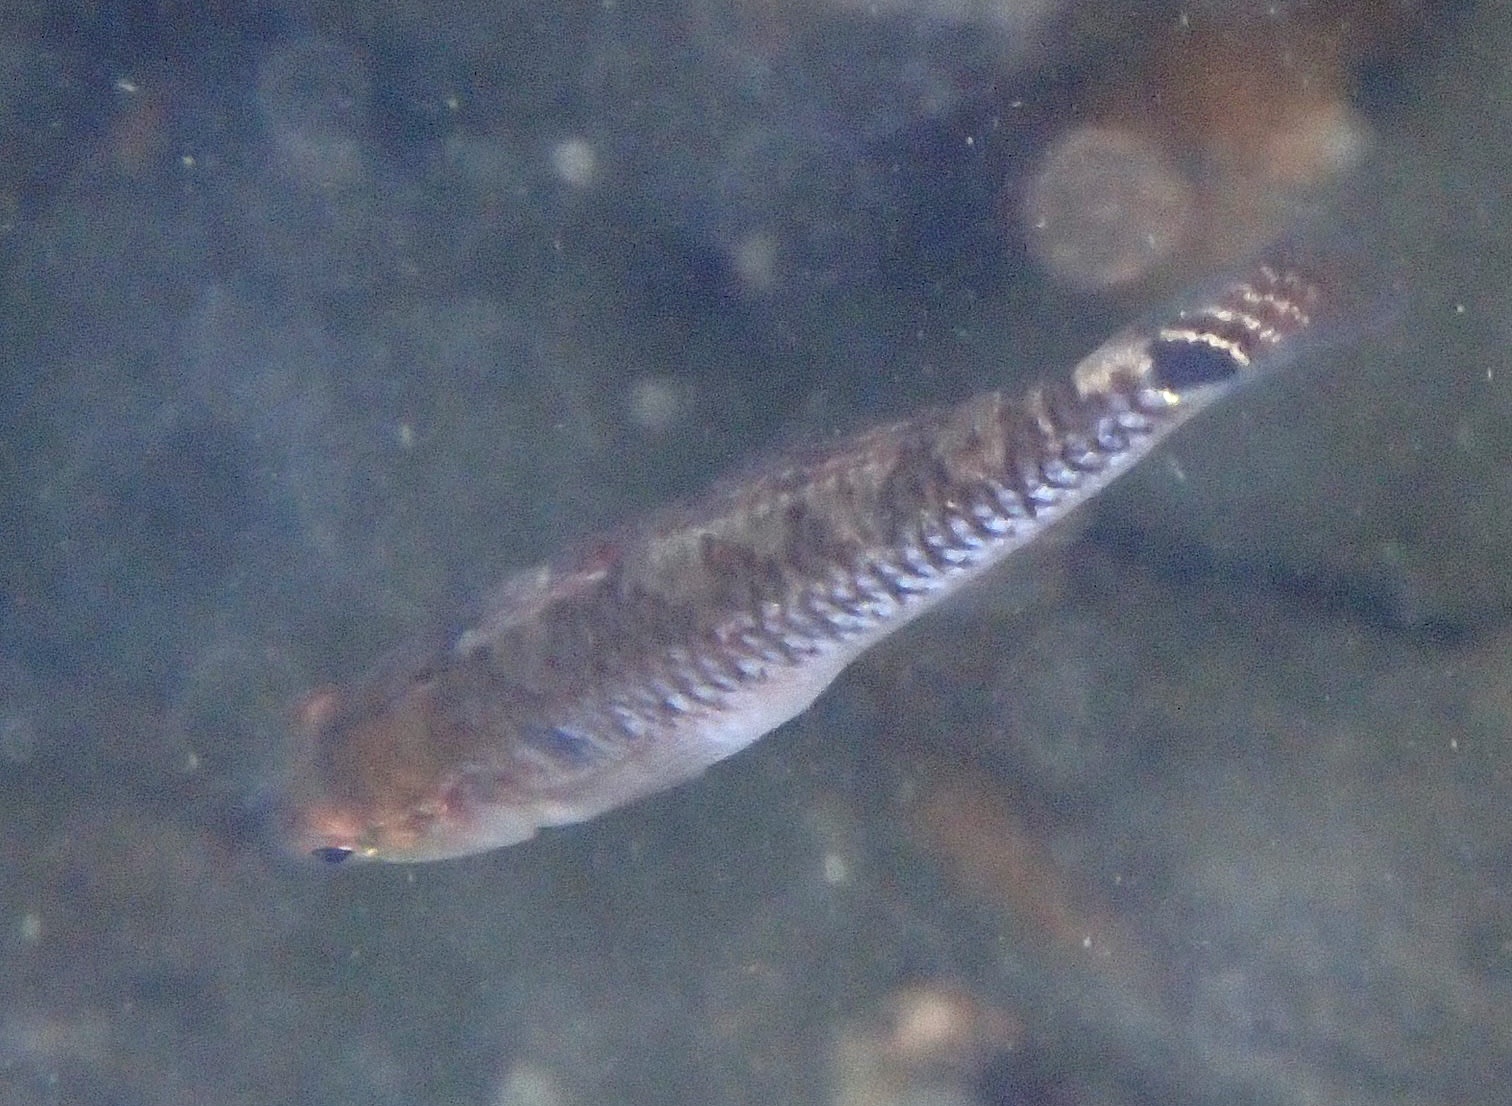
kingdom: Animalia
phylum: Chordata
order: Perciformes
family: Gobiidae
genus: Gobiusculus
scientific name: Gobiusculus flavescens
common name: Two-spotted goby
